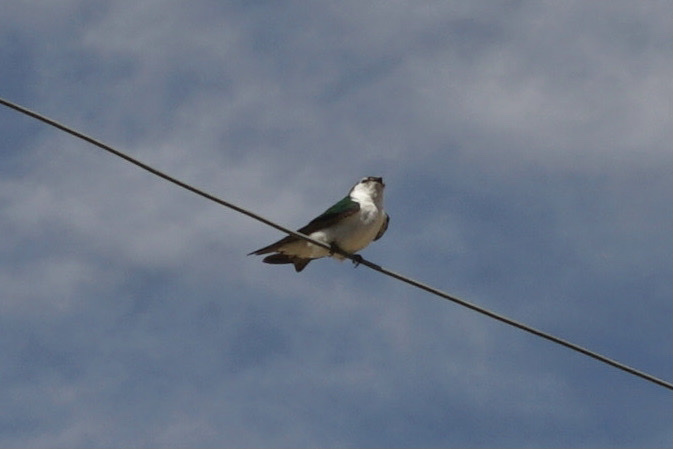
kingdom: Animalia
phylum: Chordata
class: Aves
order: Passeriformes
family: Hirundinidae
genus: Tachycineta
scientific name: Tachycineta thalassina
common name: Violet-green swallow
